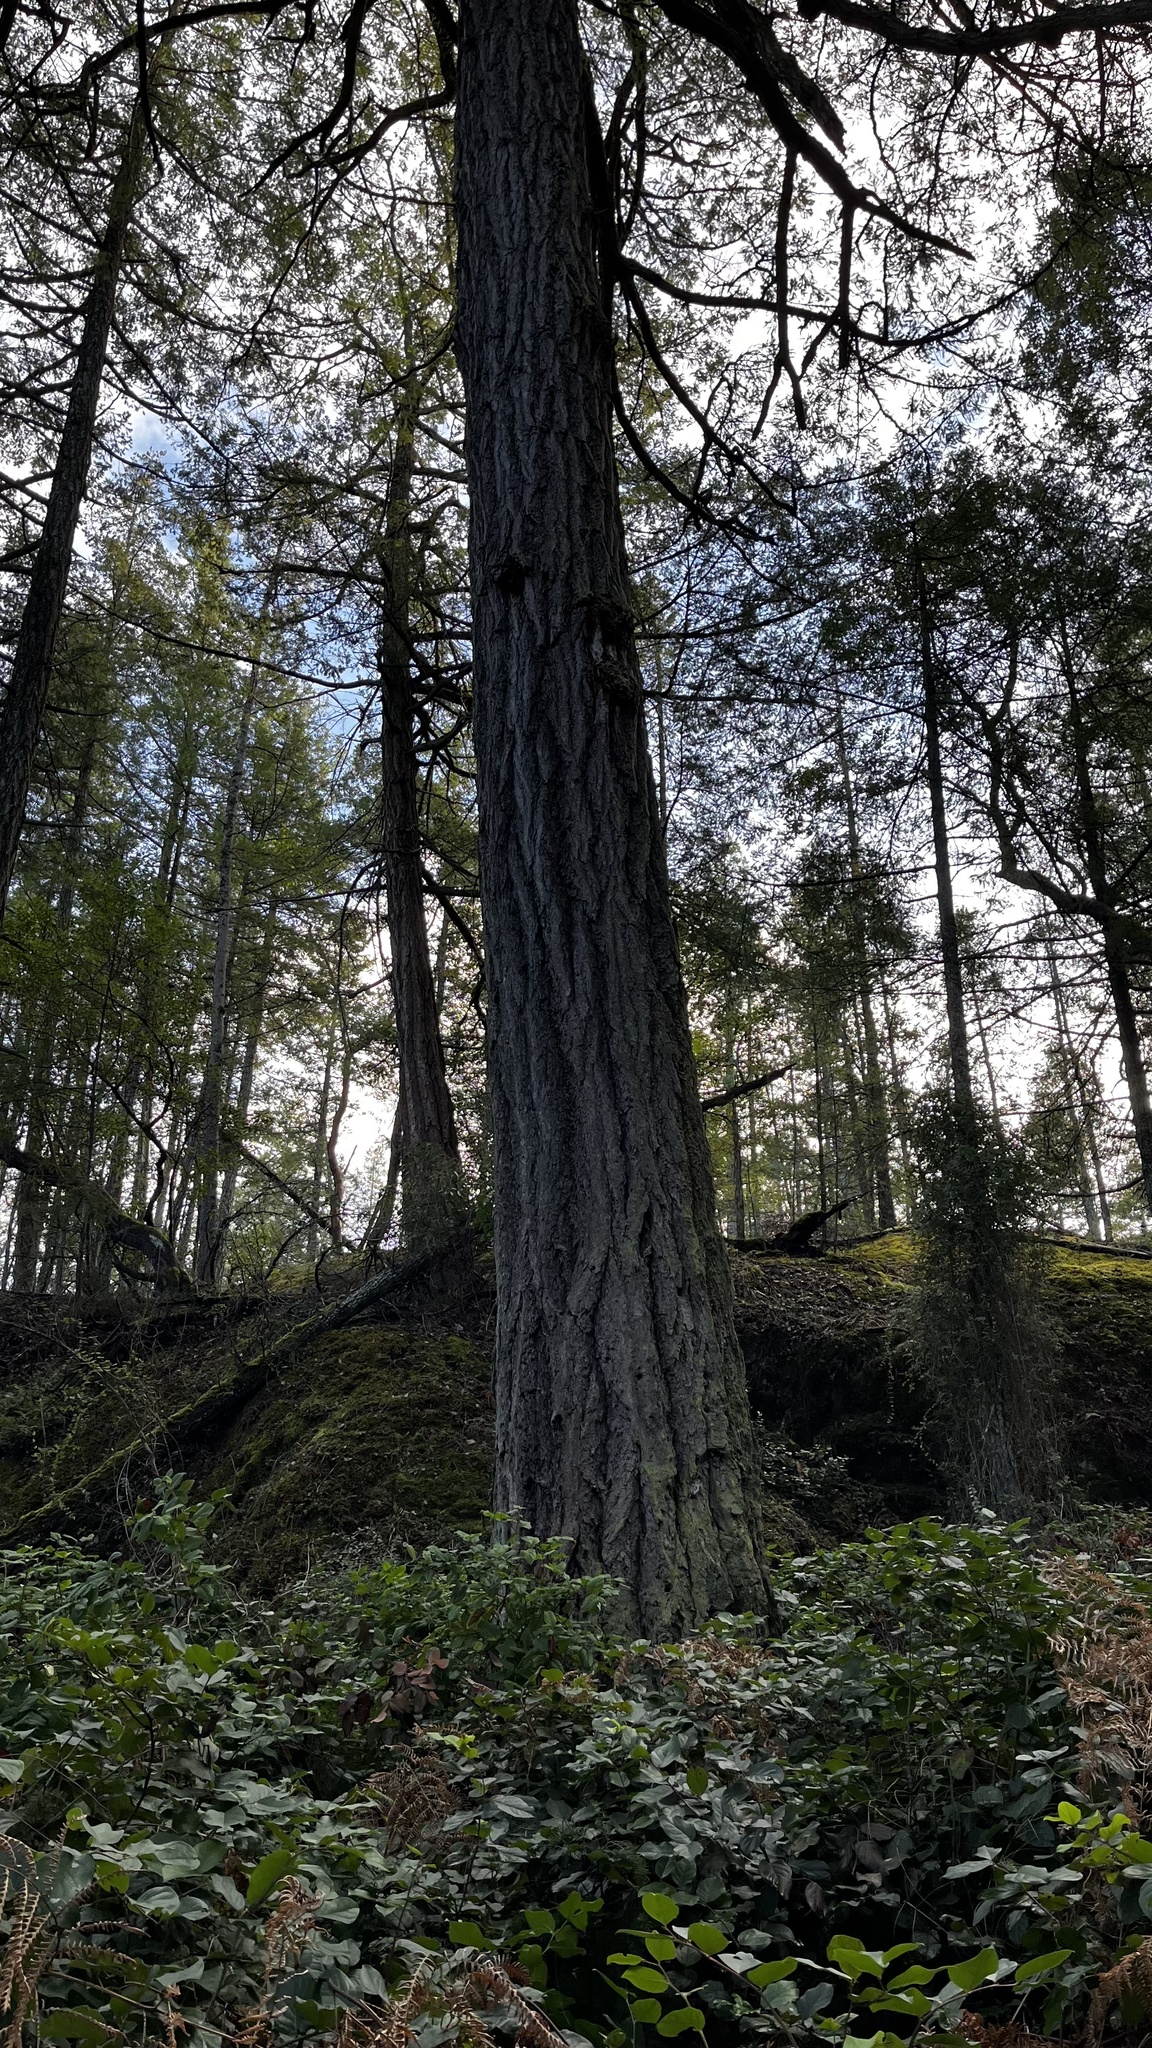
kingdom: Plantae
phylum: Tracheophyta
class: Pinopsida
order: Pinales
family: Pinaceae
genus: Pseudotsuga
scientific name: Pseudotsuga menziesii
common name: Douglas fir
